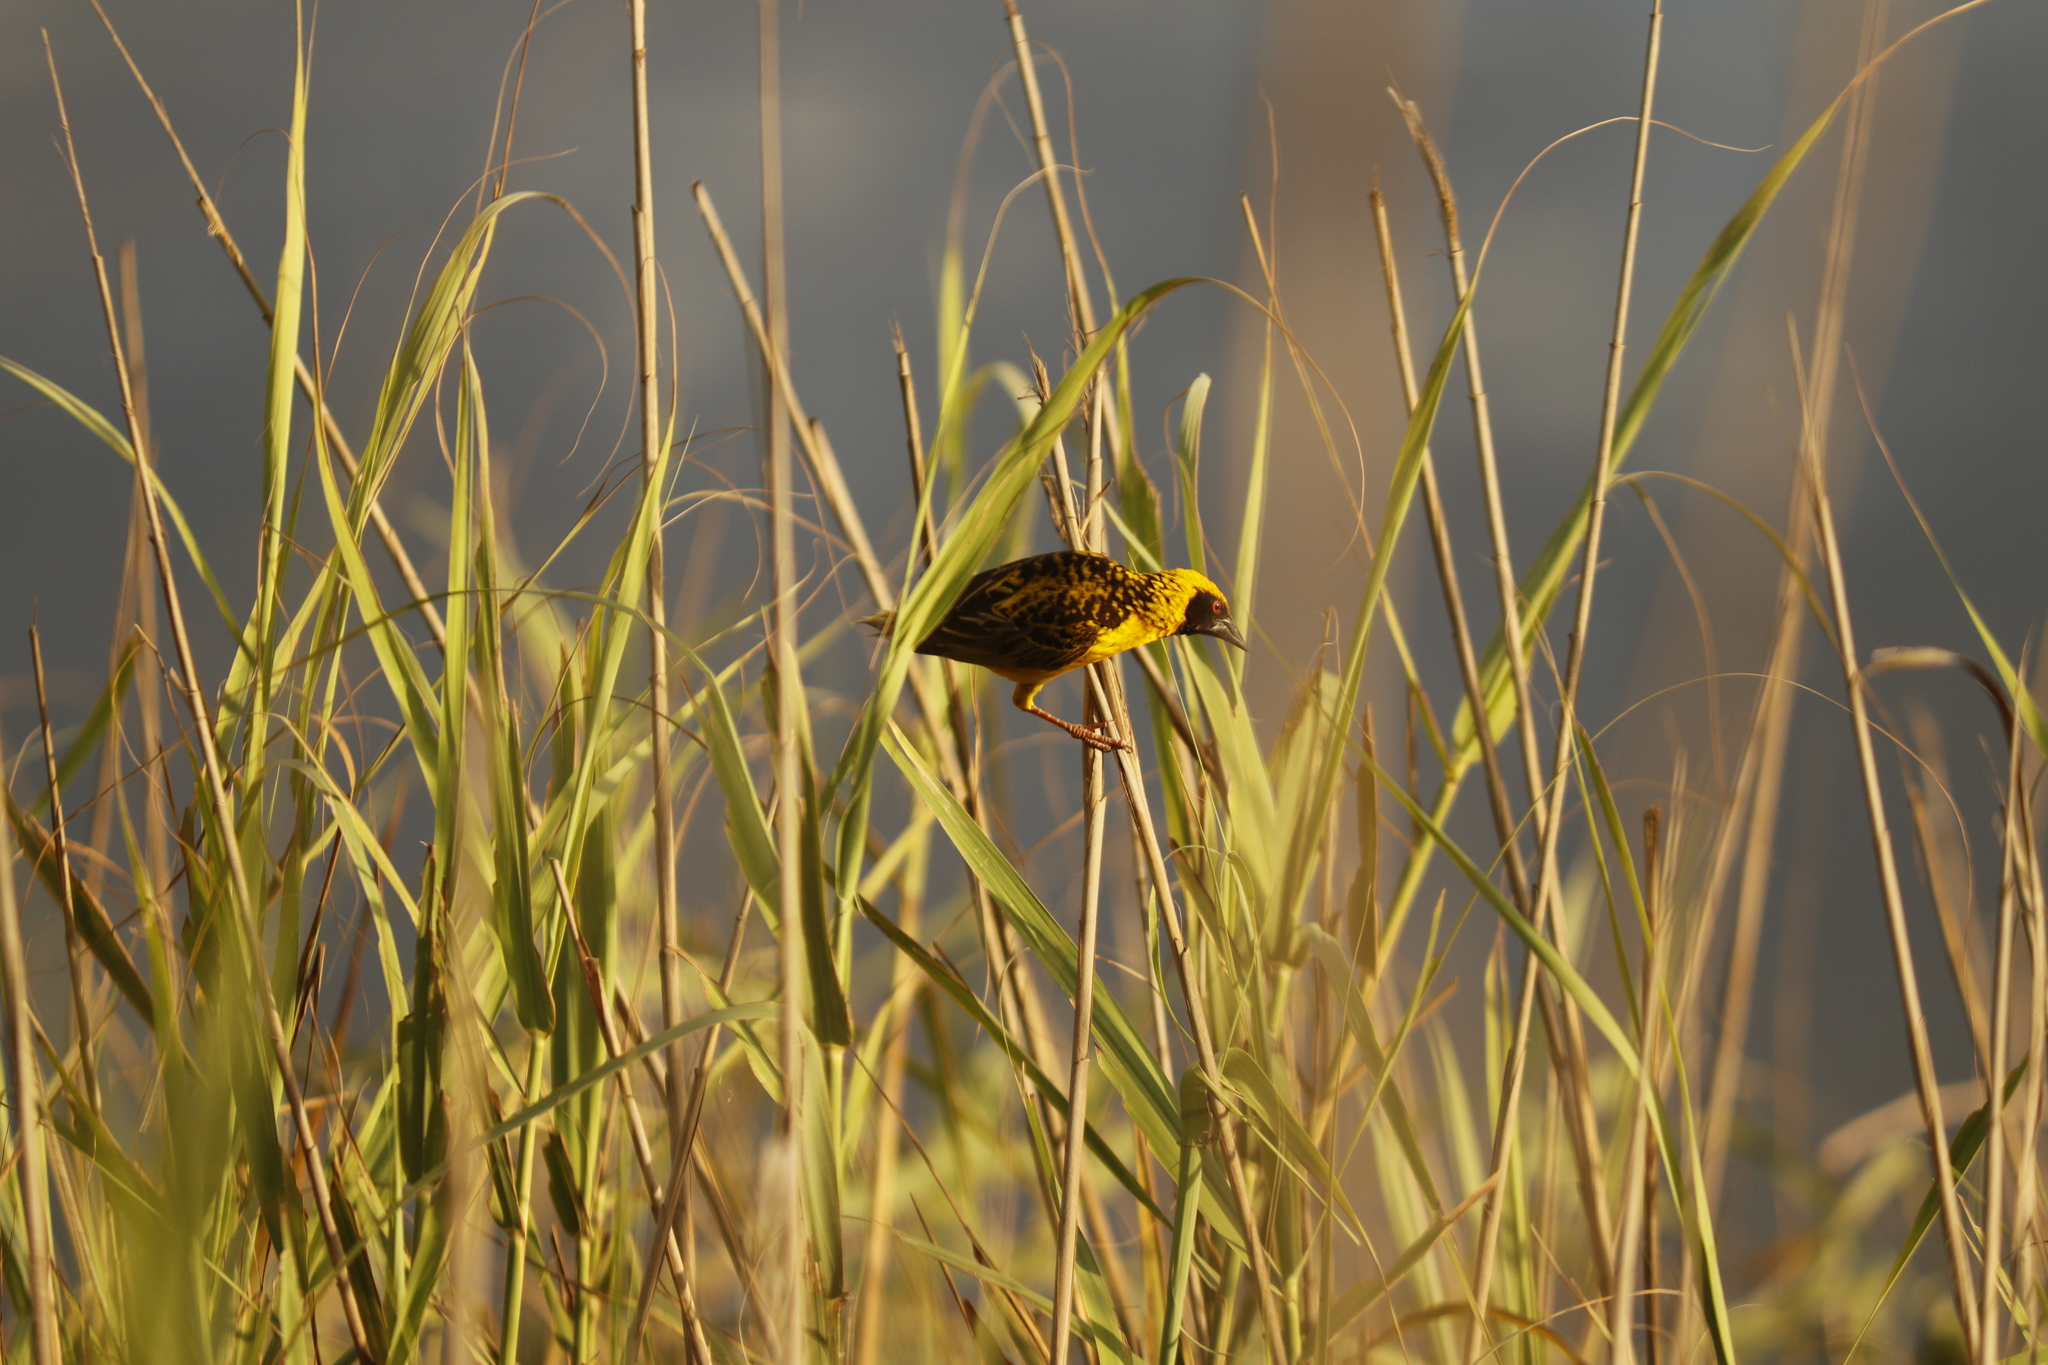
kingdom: Animalia
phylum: Chordata
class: Aves
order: Passeriformes
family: Ploceidae
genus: Ploceus
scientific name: Ploceus cucullatus
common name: Village weaver
